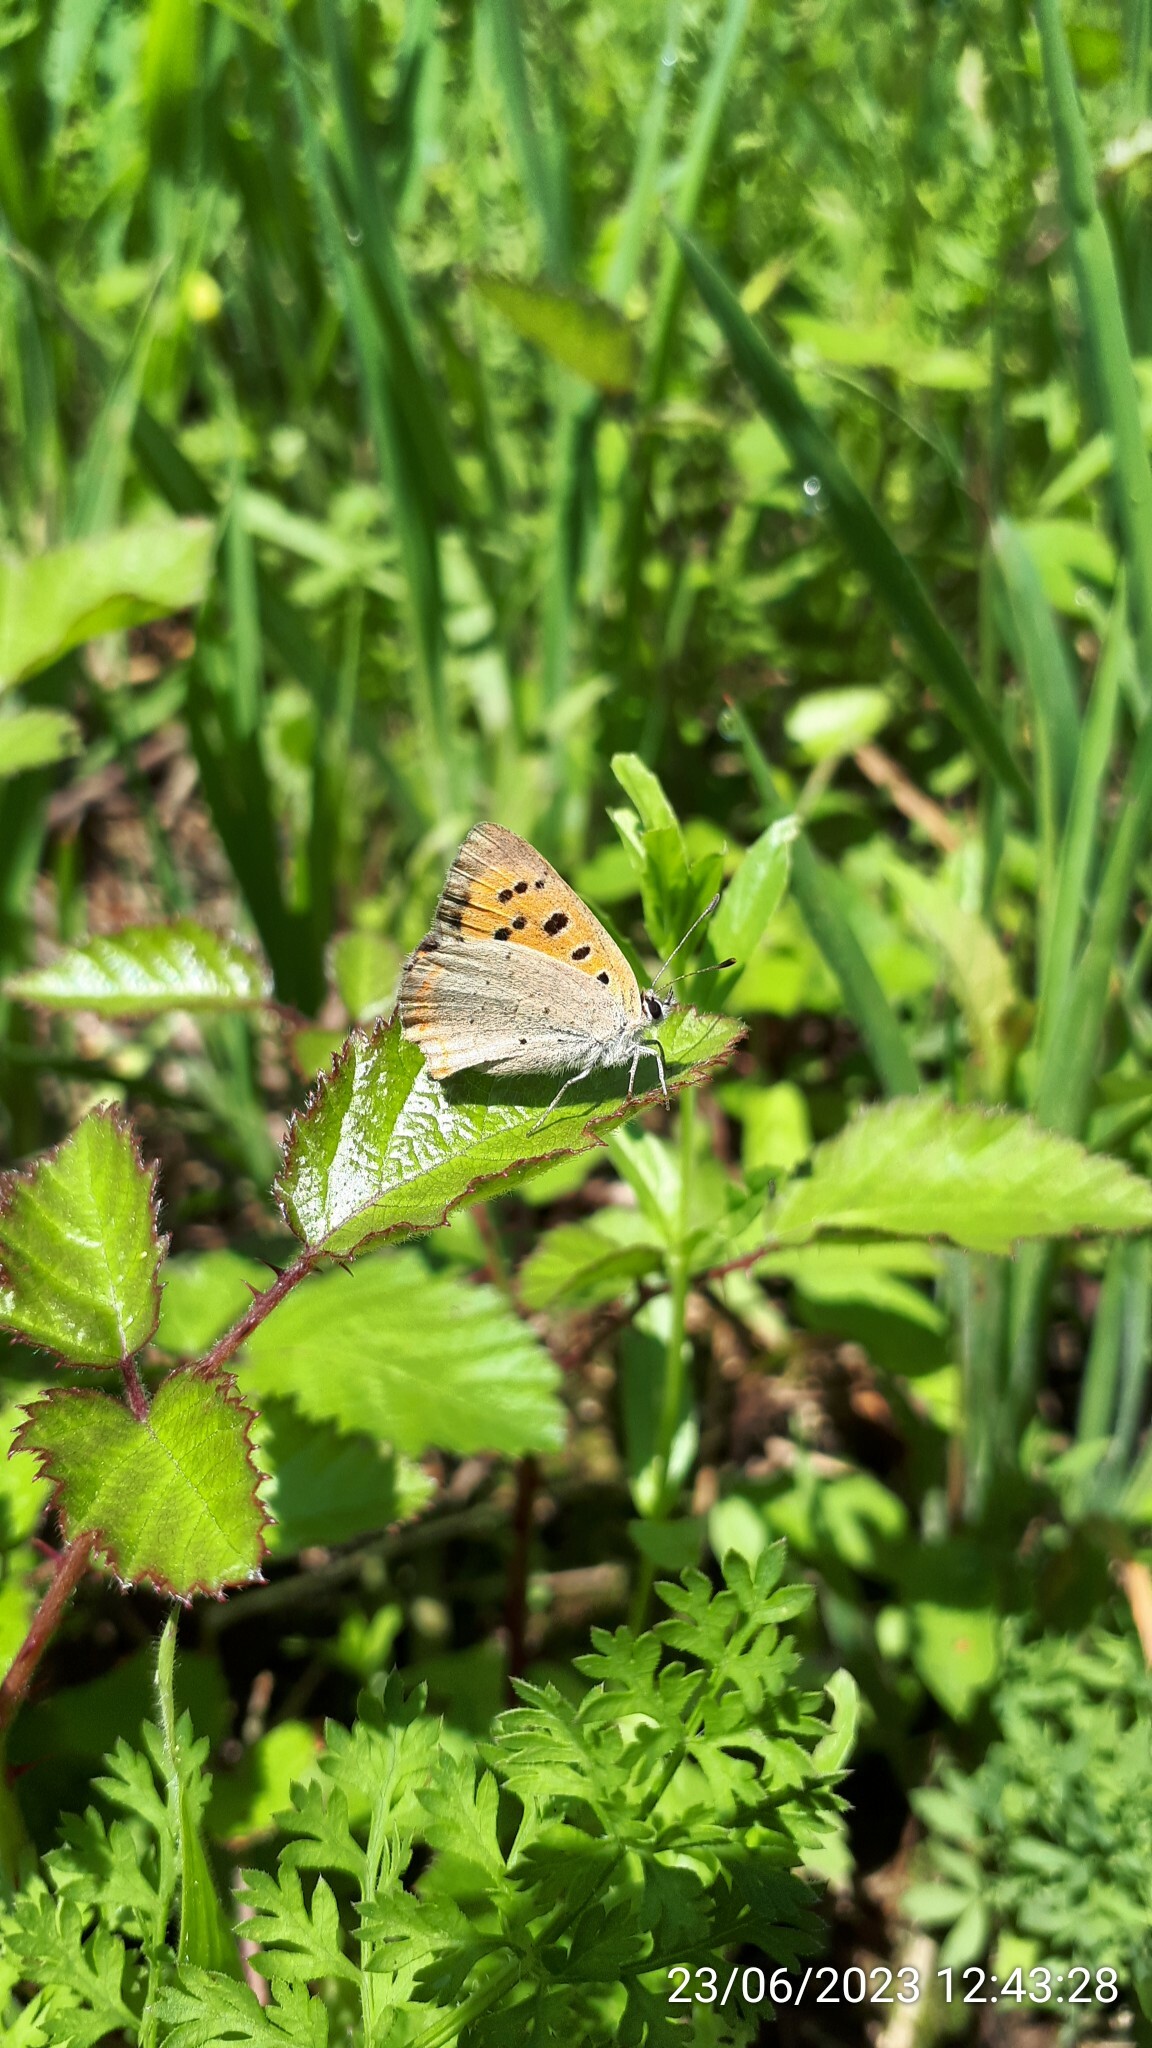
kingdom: Animalia
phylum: Arthropoda
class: Insecta
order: Lepidoptera
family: Lycaenidae
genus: Lycaena
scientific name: Lycaena phlaeas
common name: Small copper
